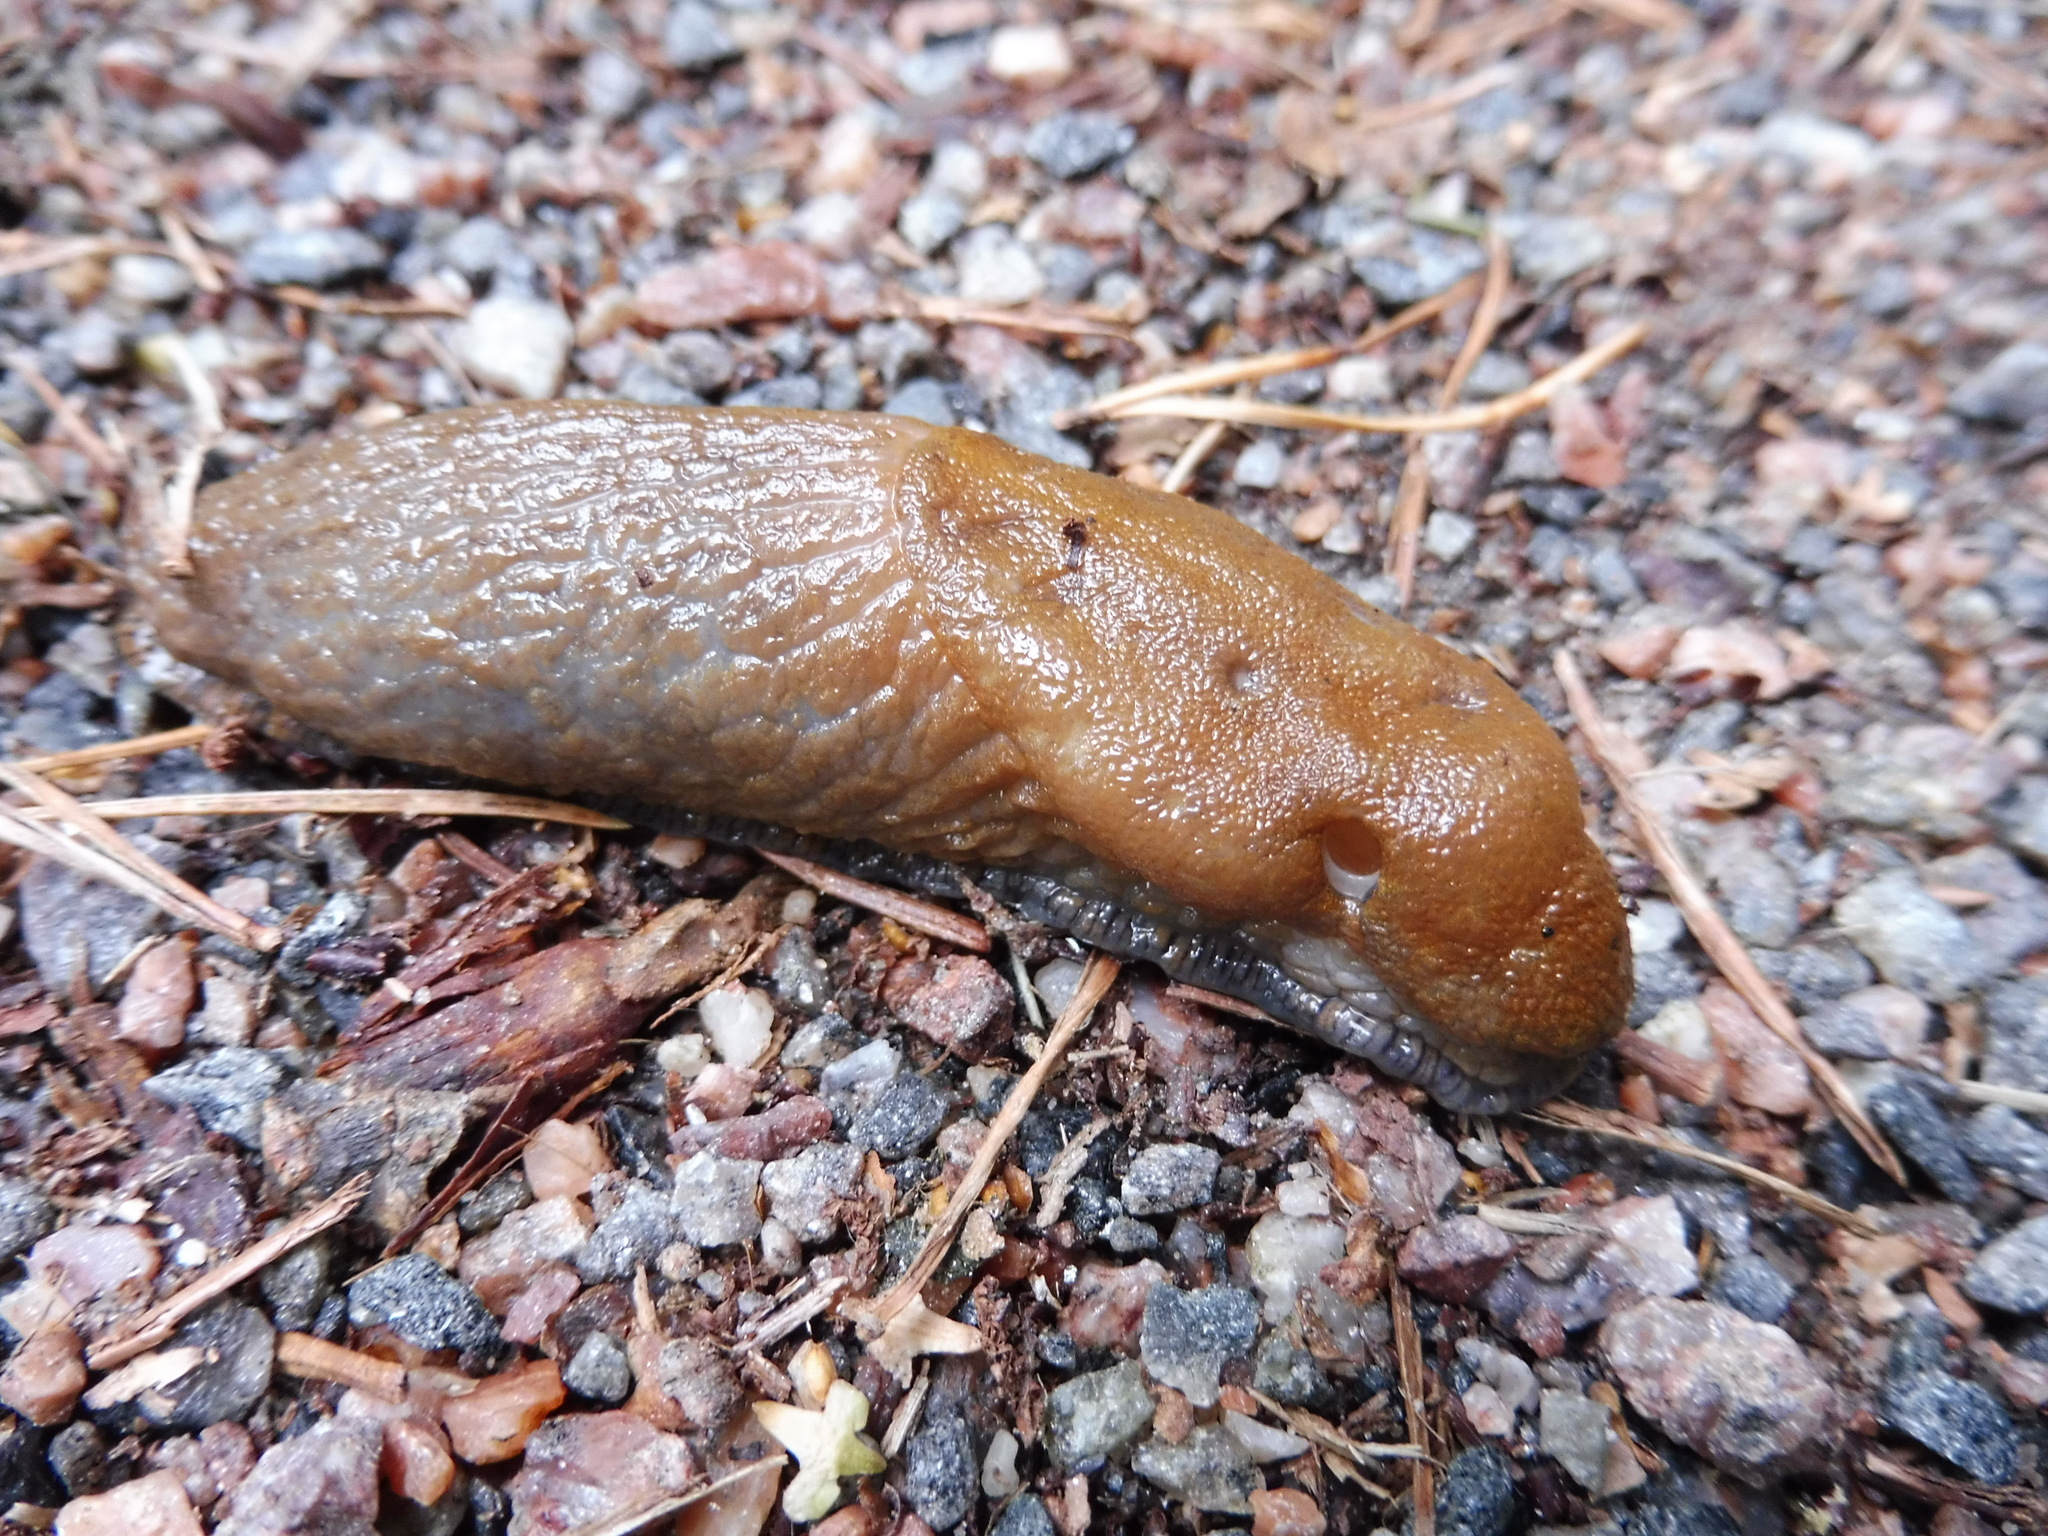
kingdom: Animalia
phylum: Mollusca
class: Gastropoda
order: Stylommatophora
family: Arionidae
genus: Arion
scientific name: Arion vulgaris
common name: Lusitanian slug
